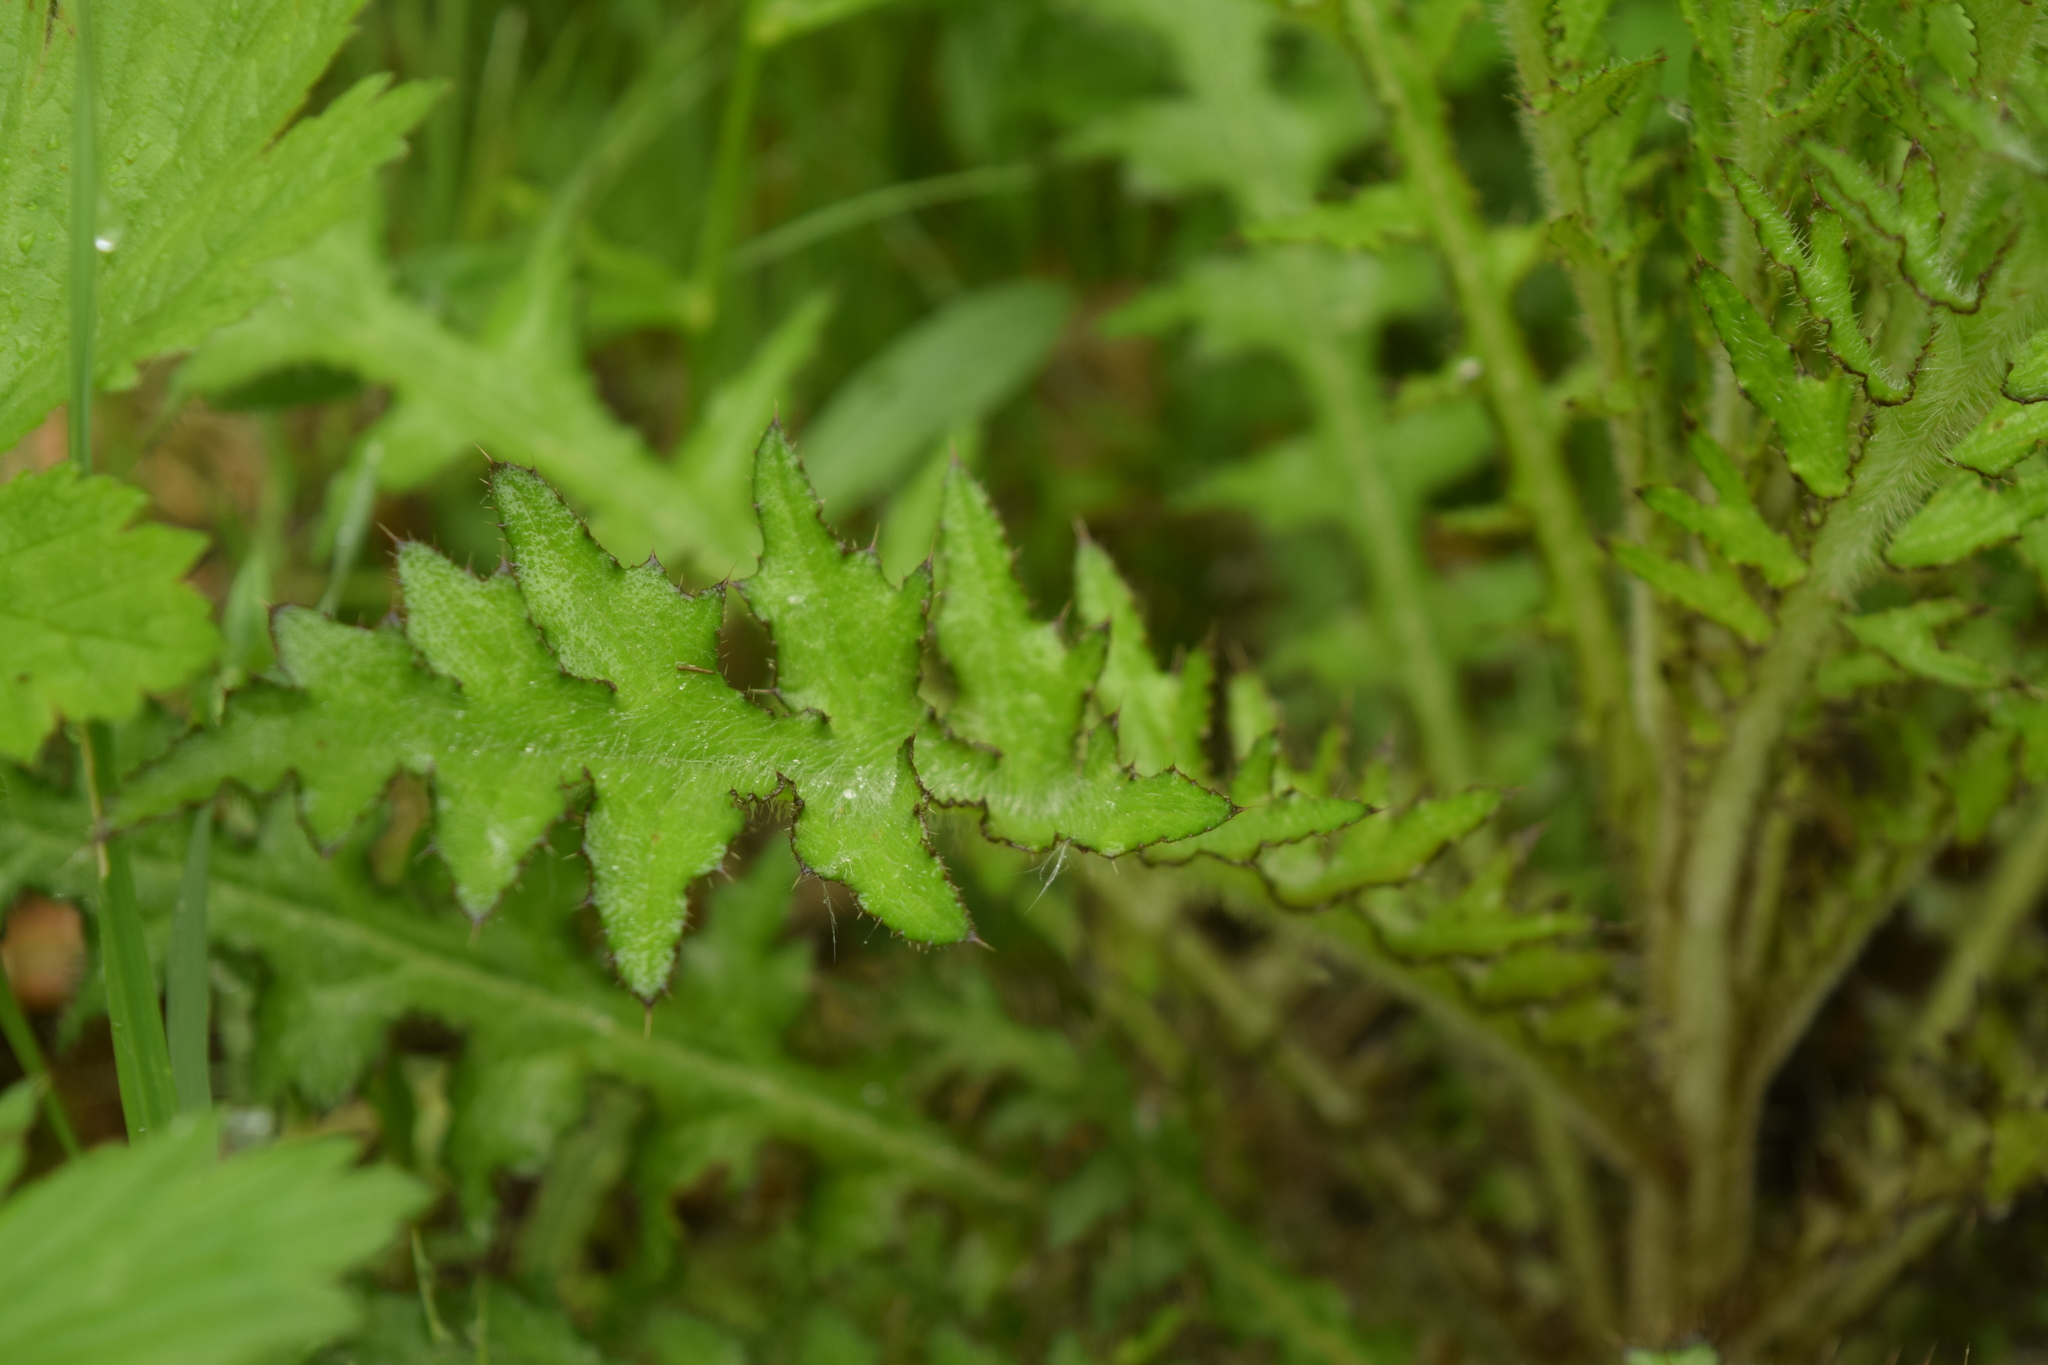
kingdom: Plantae
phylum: Tracheophyta
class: Magnoliopsida
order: Asterales
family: Asteraceae
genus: Cirsium
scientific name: Cirsium palustre
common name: Marsh thistle
